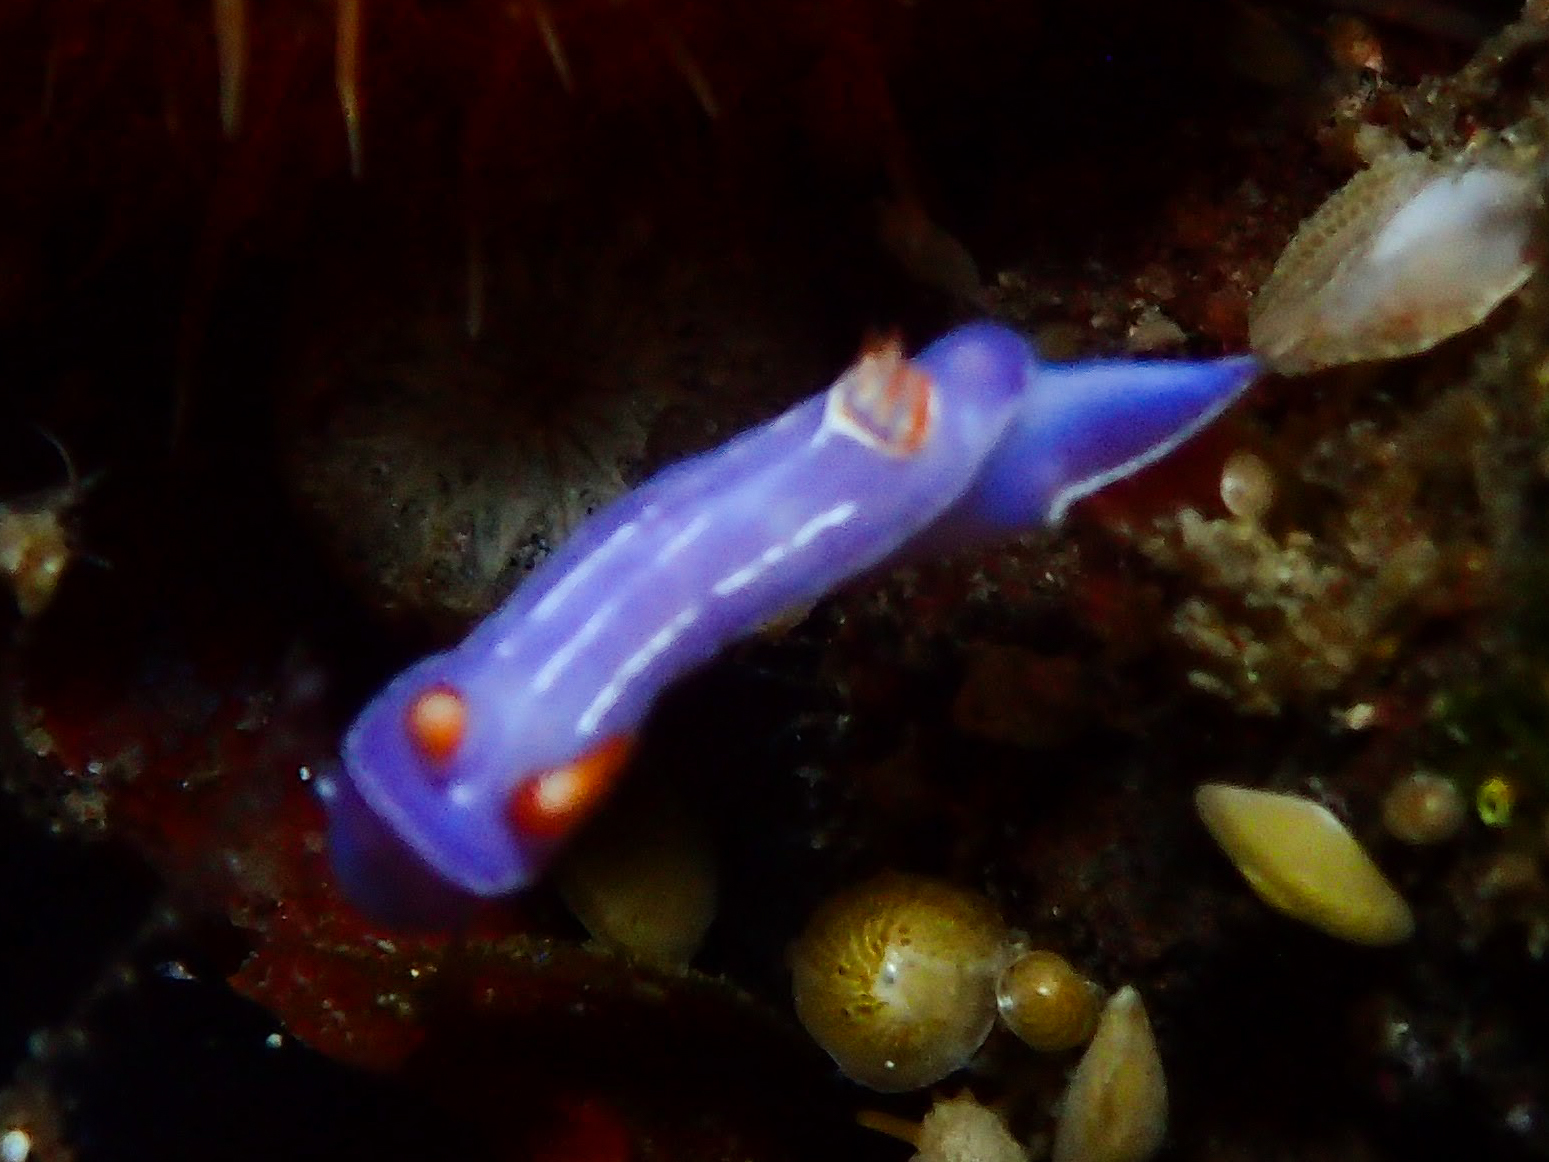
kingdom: Animalia
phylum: Mollusca
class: Gastropoda
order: Nudibranchia
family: Chromodorididae
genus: Mexichromis
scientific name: Mexichromis trilineata
